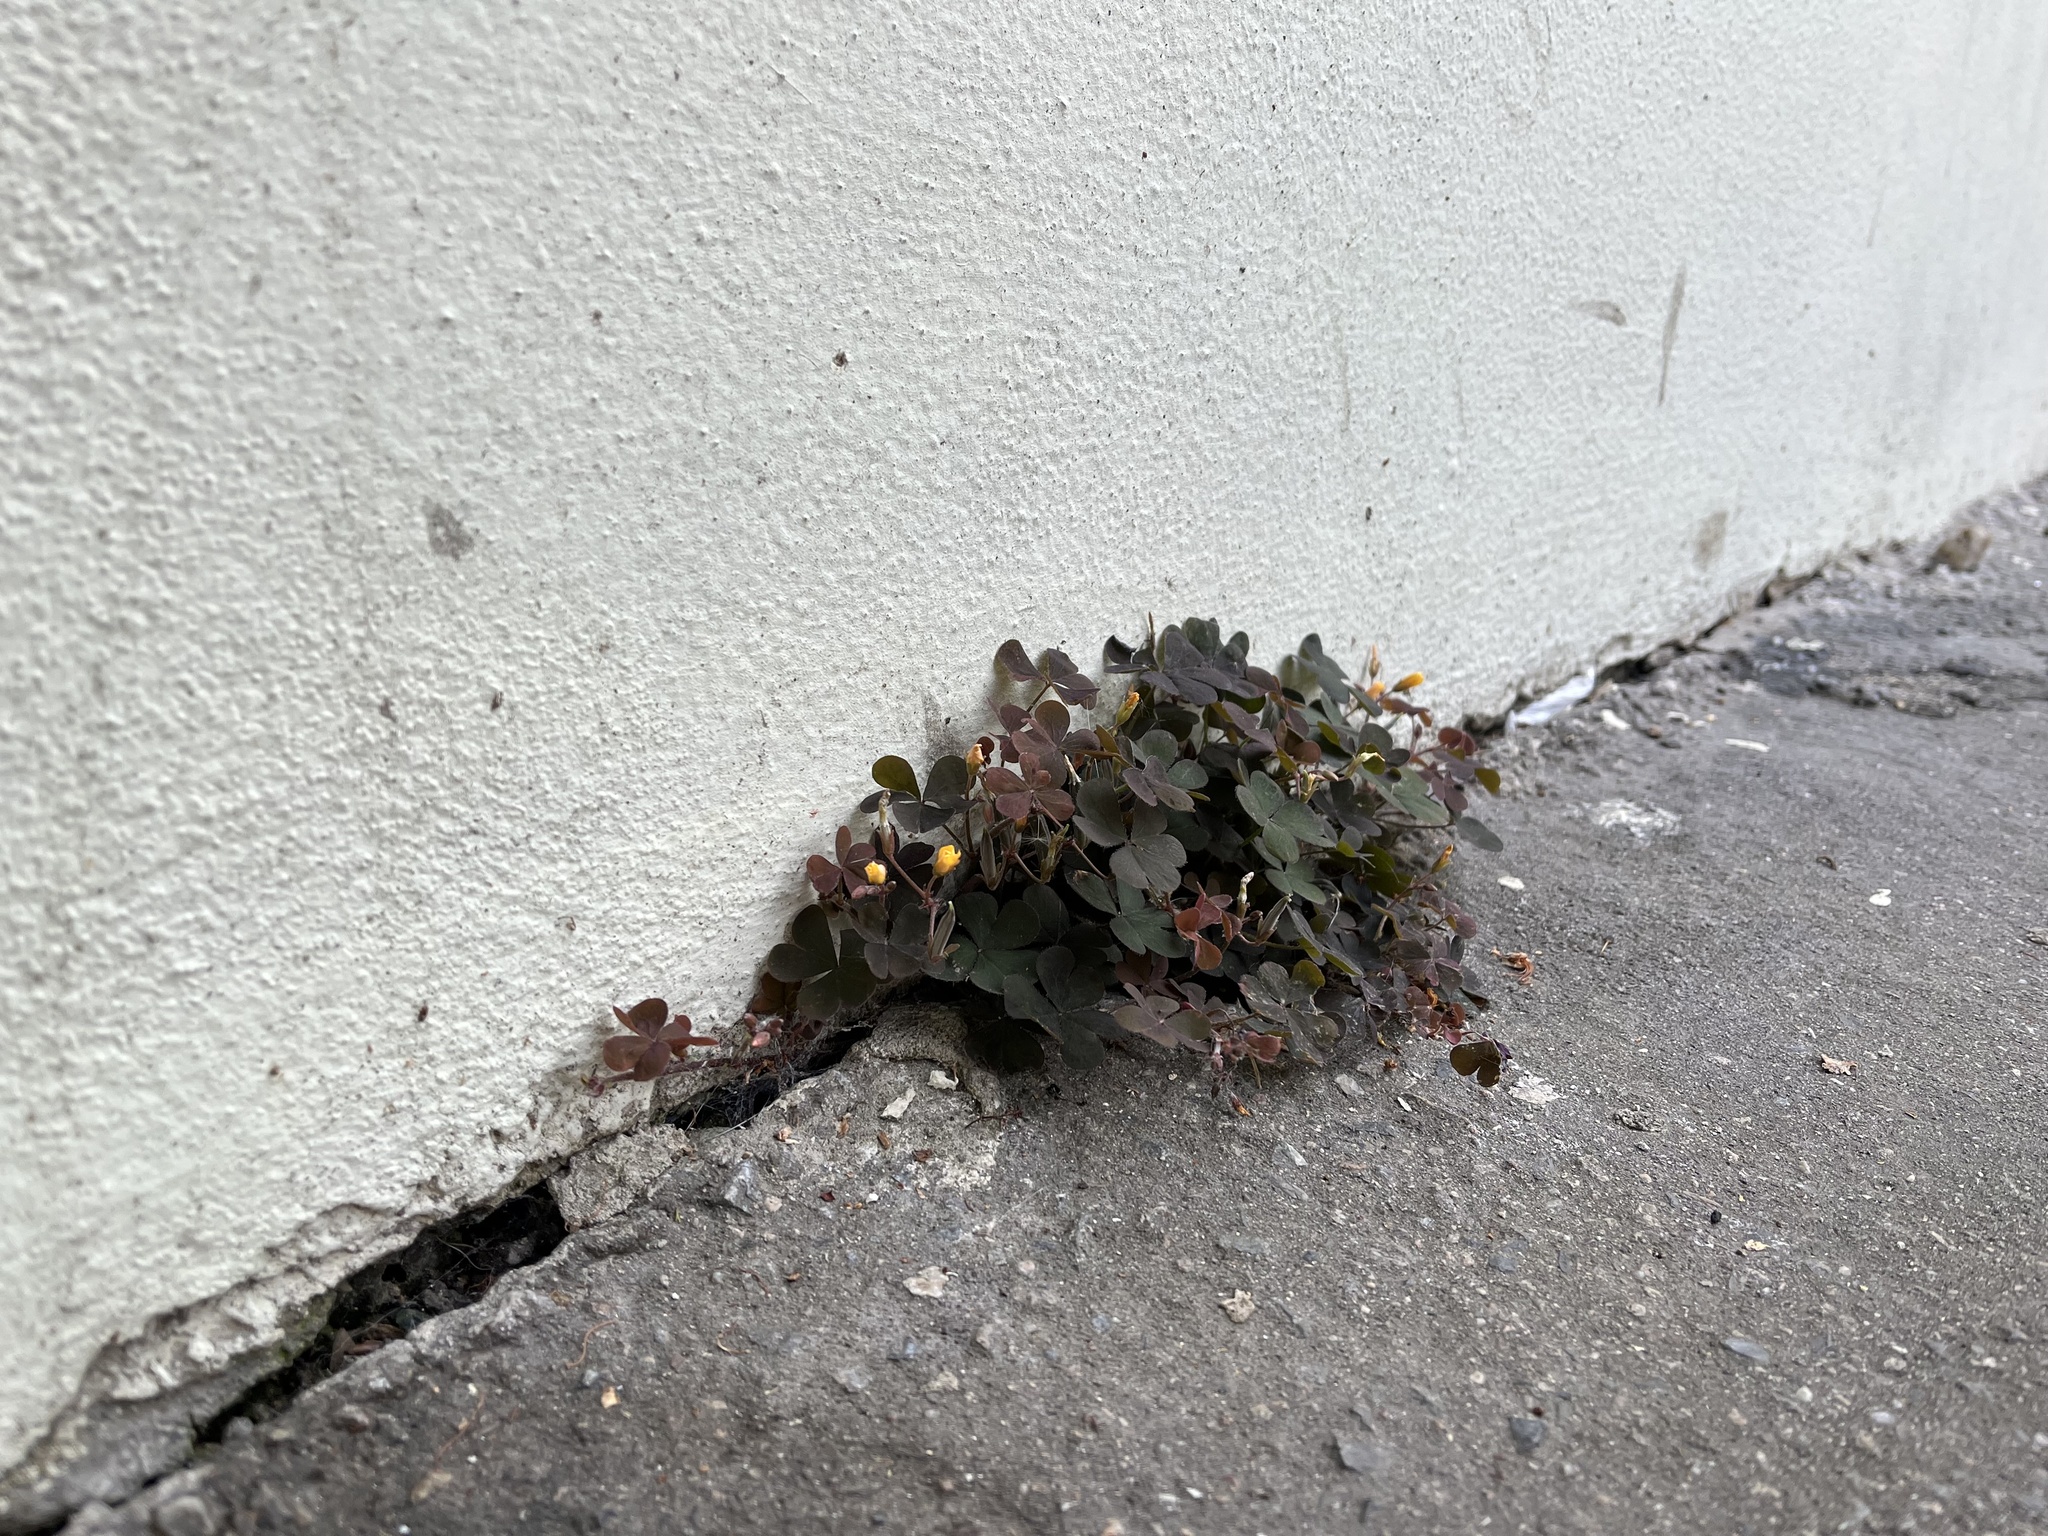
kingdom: Plantae
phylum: Tracheophyta
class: Magnoliopsida
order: Oxalidales
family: Oxalidaceae
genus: Oxalis
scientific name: Oxalis corniculata
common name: Procumbent yellow-sorrel
